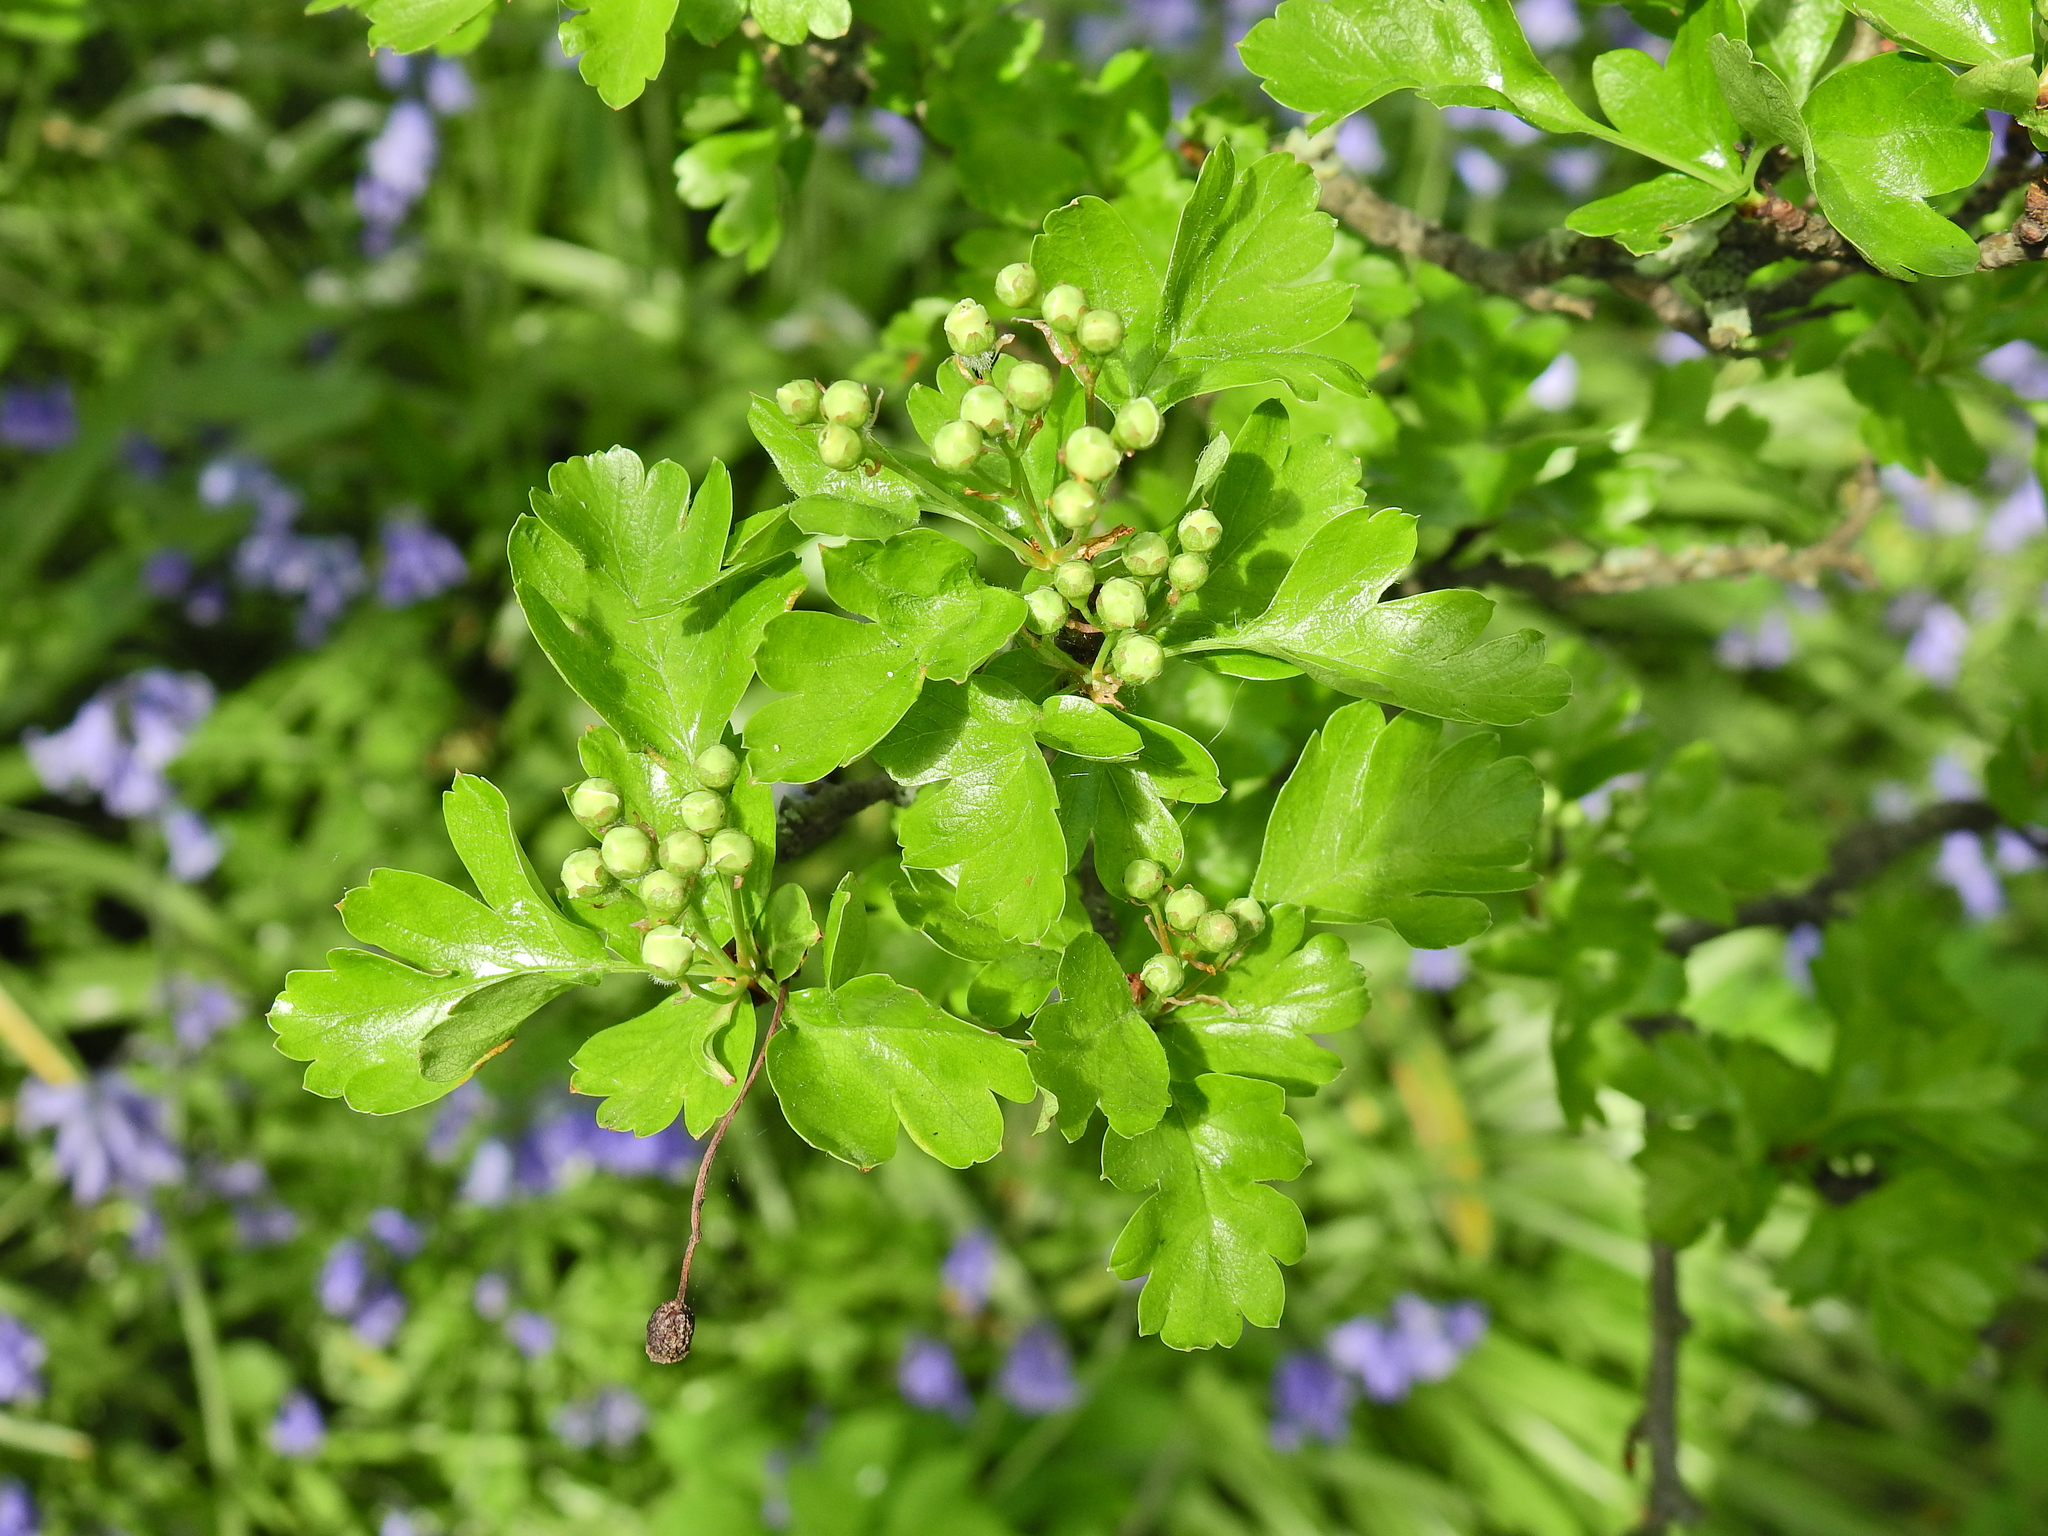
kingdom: Plantae
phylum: Tracheophyta
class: Magnoliopsida
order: Rosales
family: Rosaceae
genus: Crataegus
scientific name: Crataegus monogyna
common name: Hawthorn
